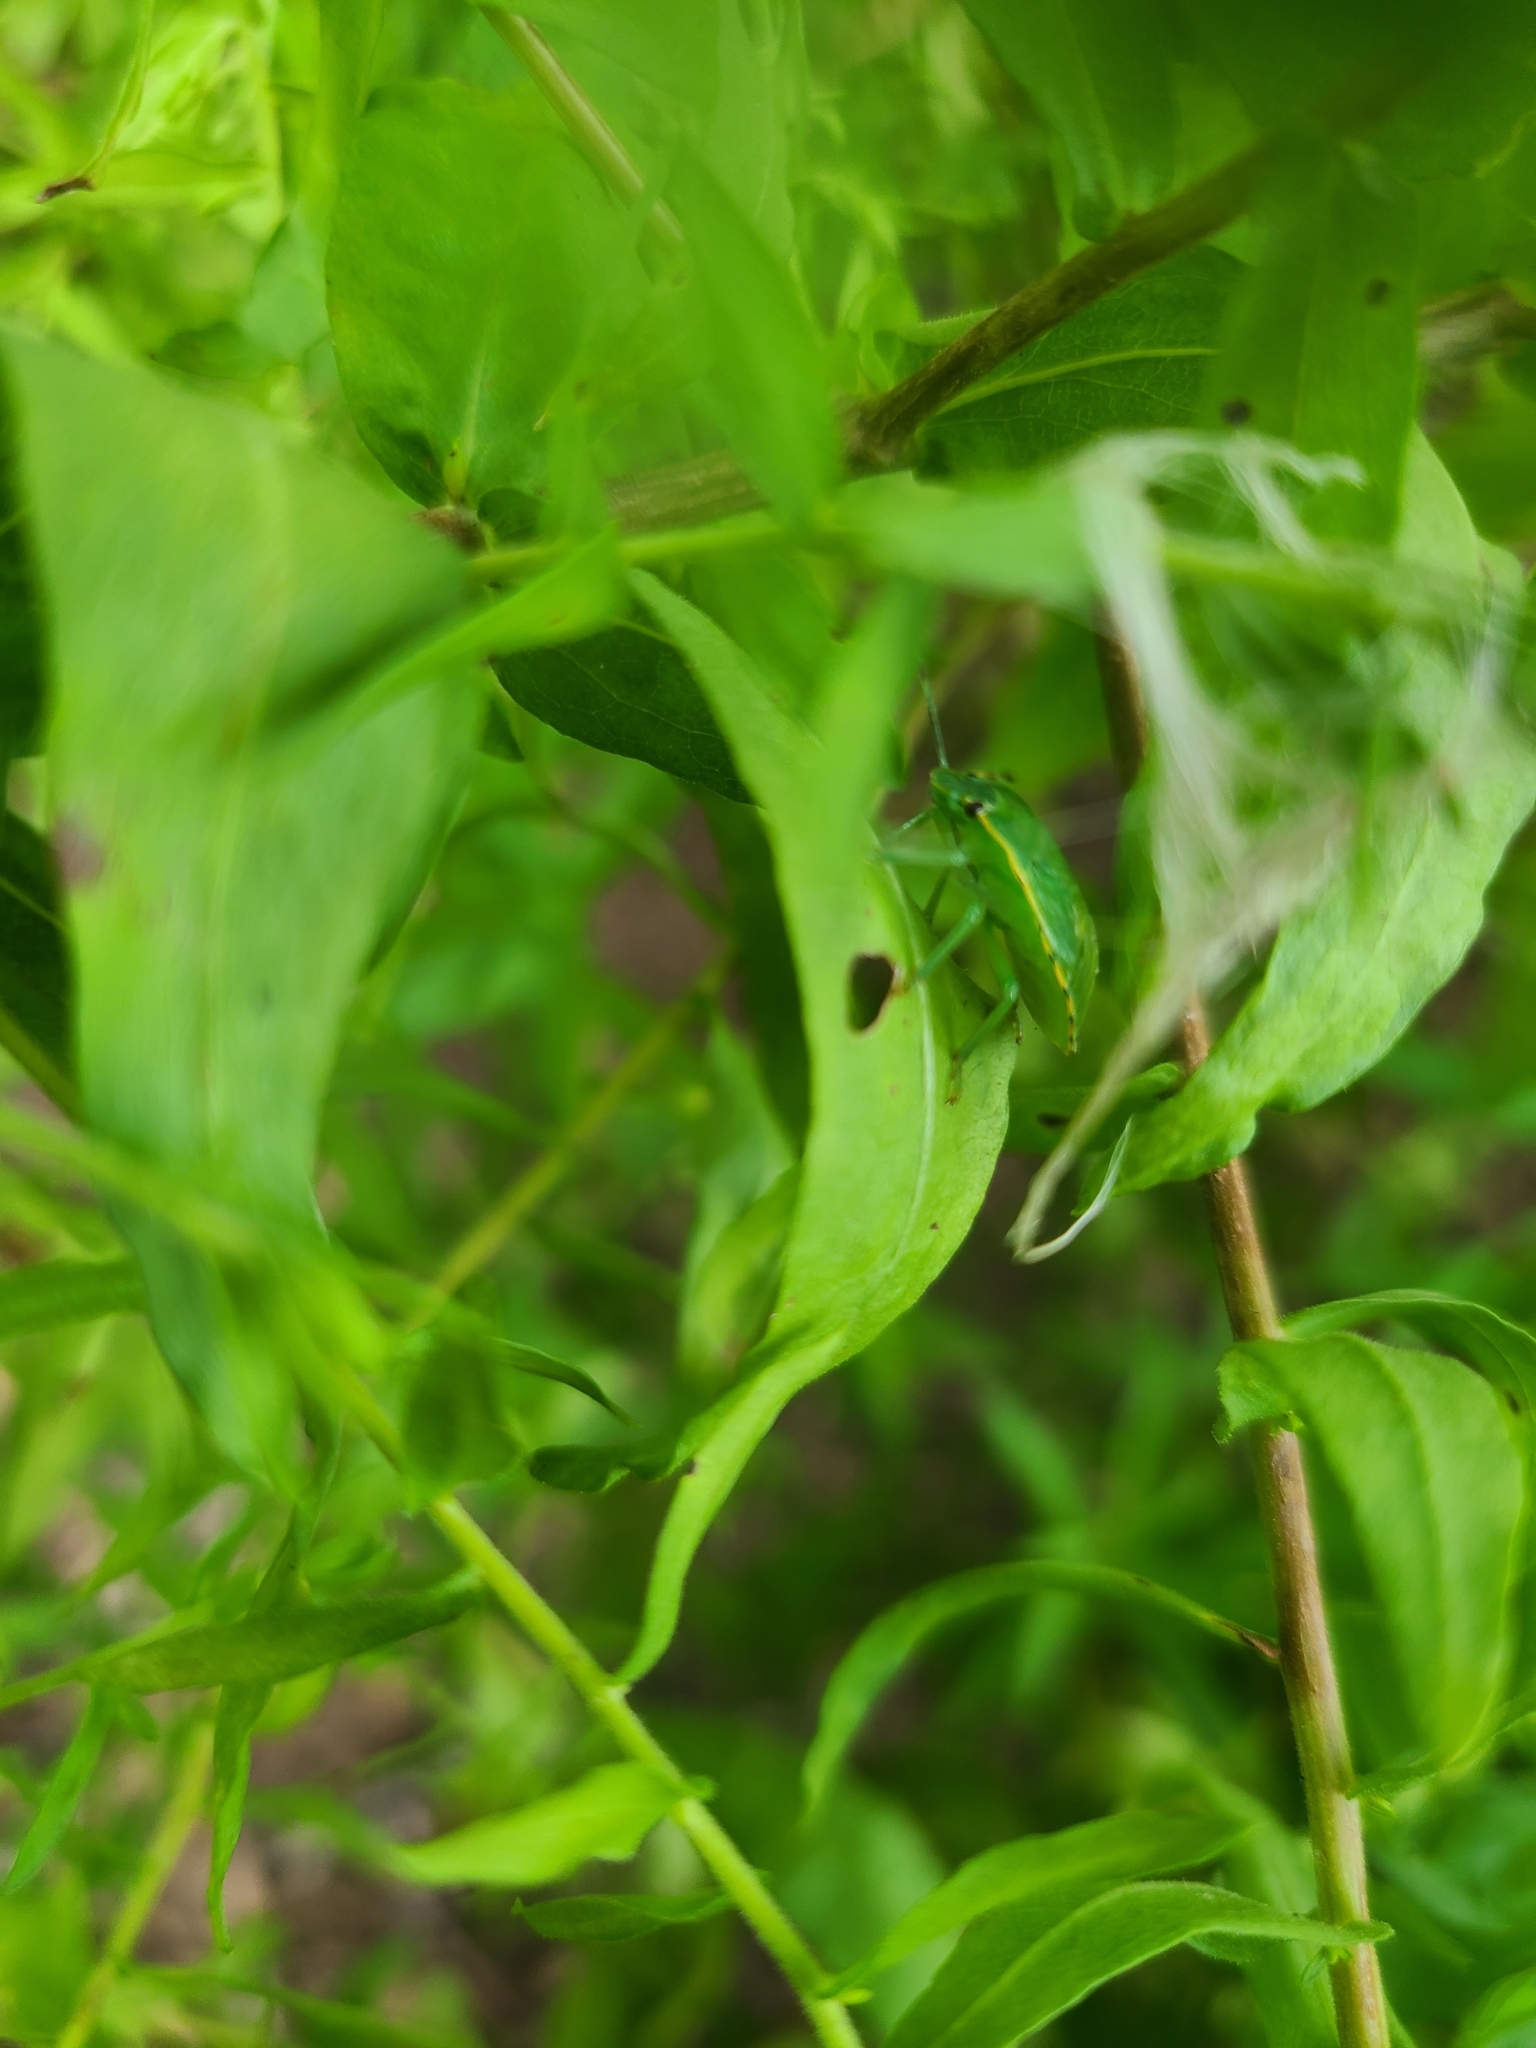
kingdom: Animalia
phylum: Arthropoda
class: Insecta
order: Hemiptera
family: Pentatomidae
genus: Chinavia
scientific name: Chinavia hilaris
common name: Green stink bug
